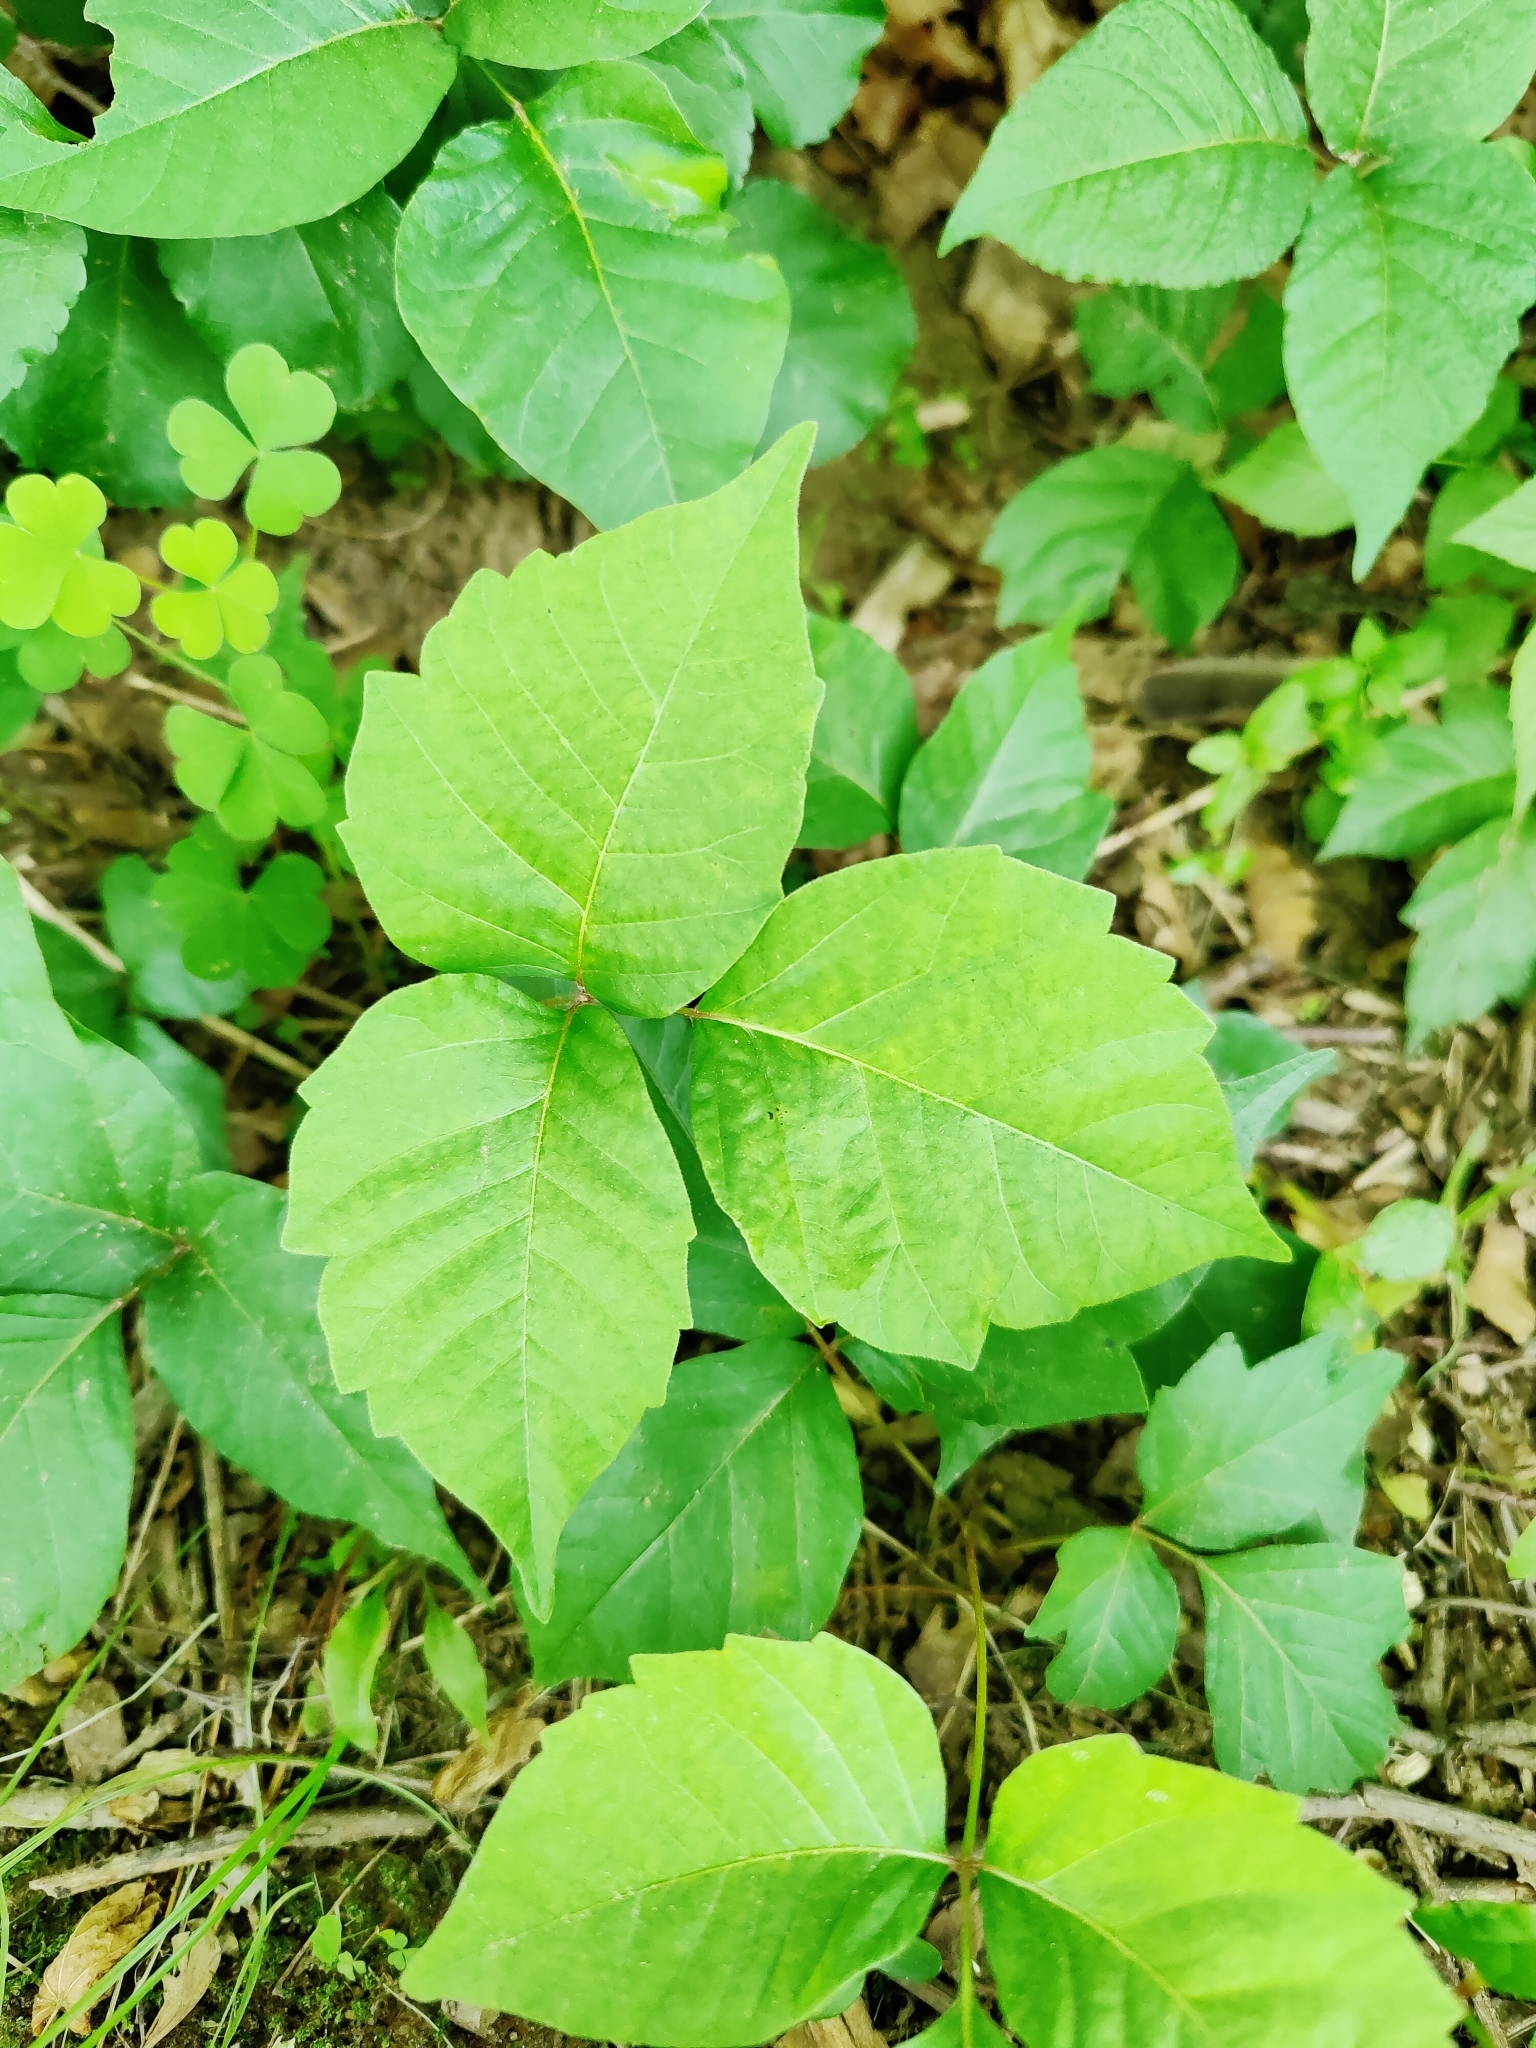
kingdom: Plantae
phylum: Tracheophyta
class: Magnoliopsida
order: Sapindales
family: Anacardiaceae
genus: Toxicodendron
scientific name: Toxicodendron radicans
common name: Poison ivy
